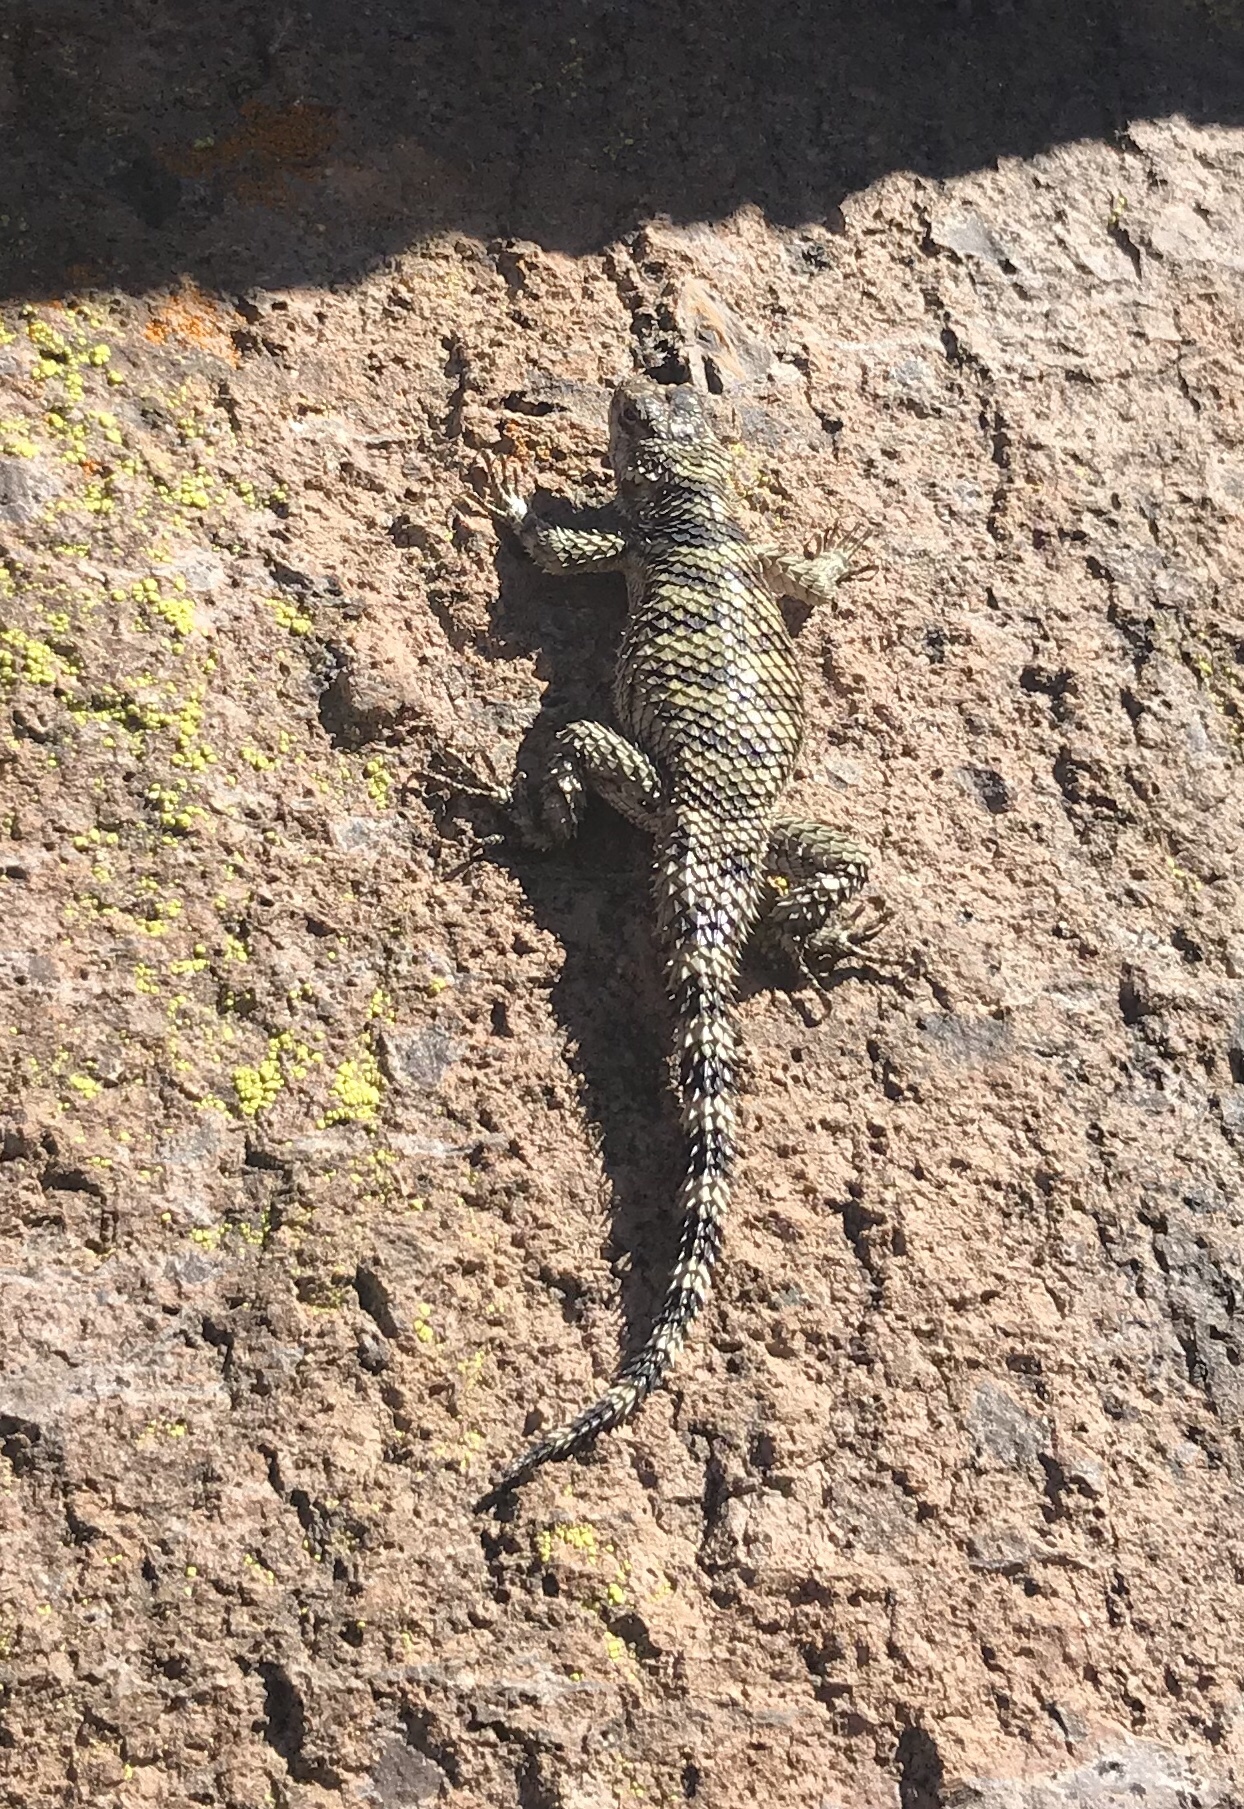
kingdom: Animalia
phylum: Chordata
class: Squamata
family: Phrynosomatidae
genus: Sceloporus
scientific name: Sceloporus poinsettii
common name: Crevice spiny lizard
